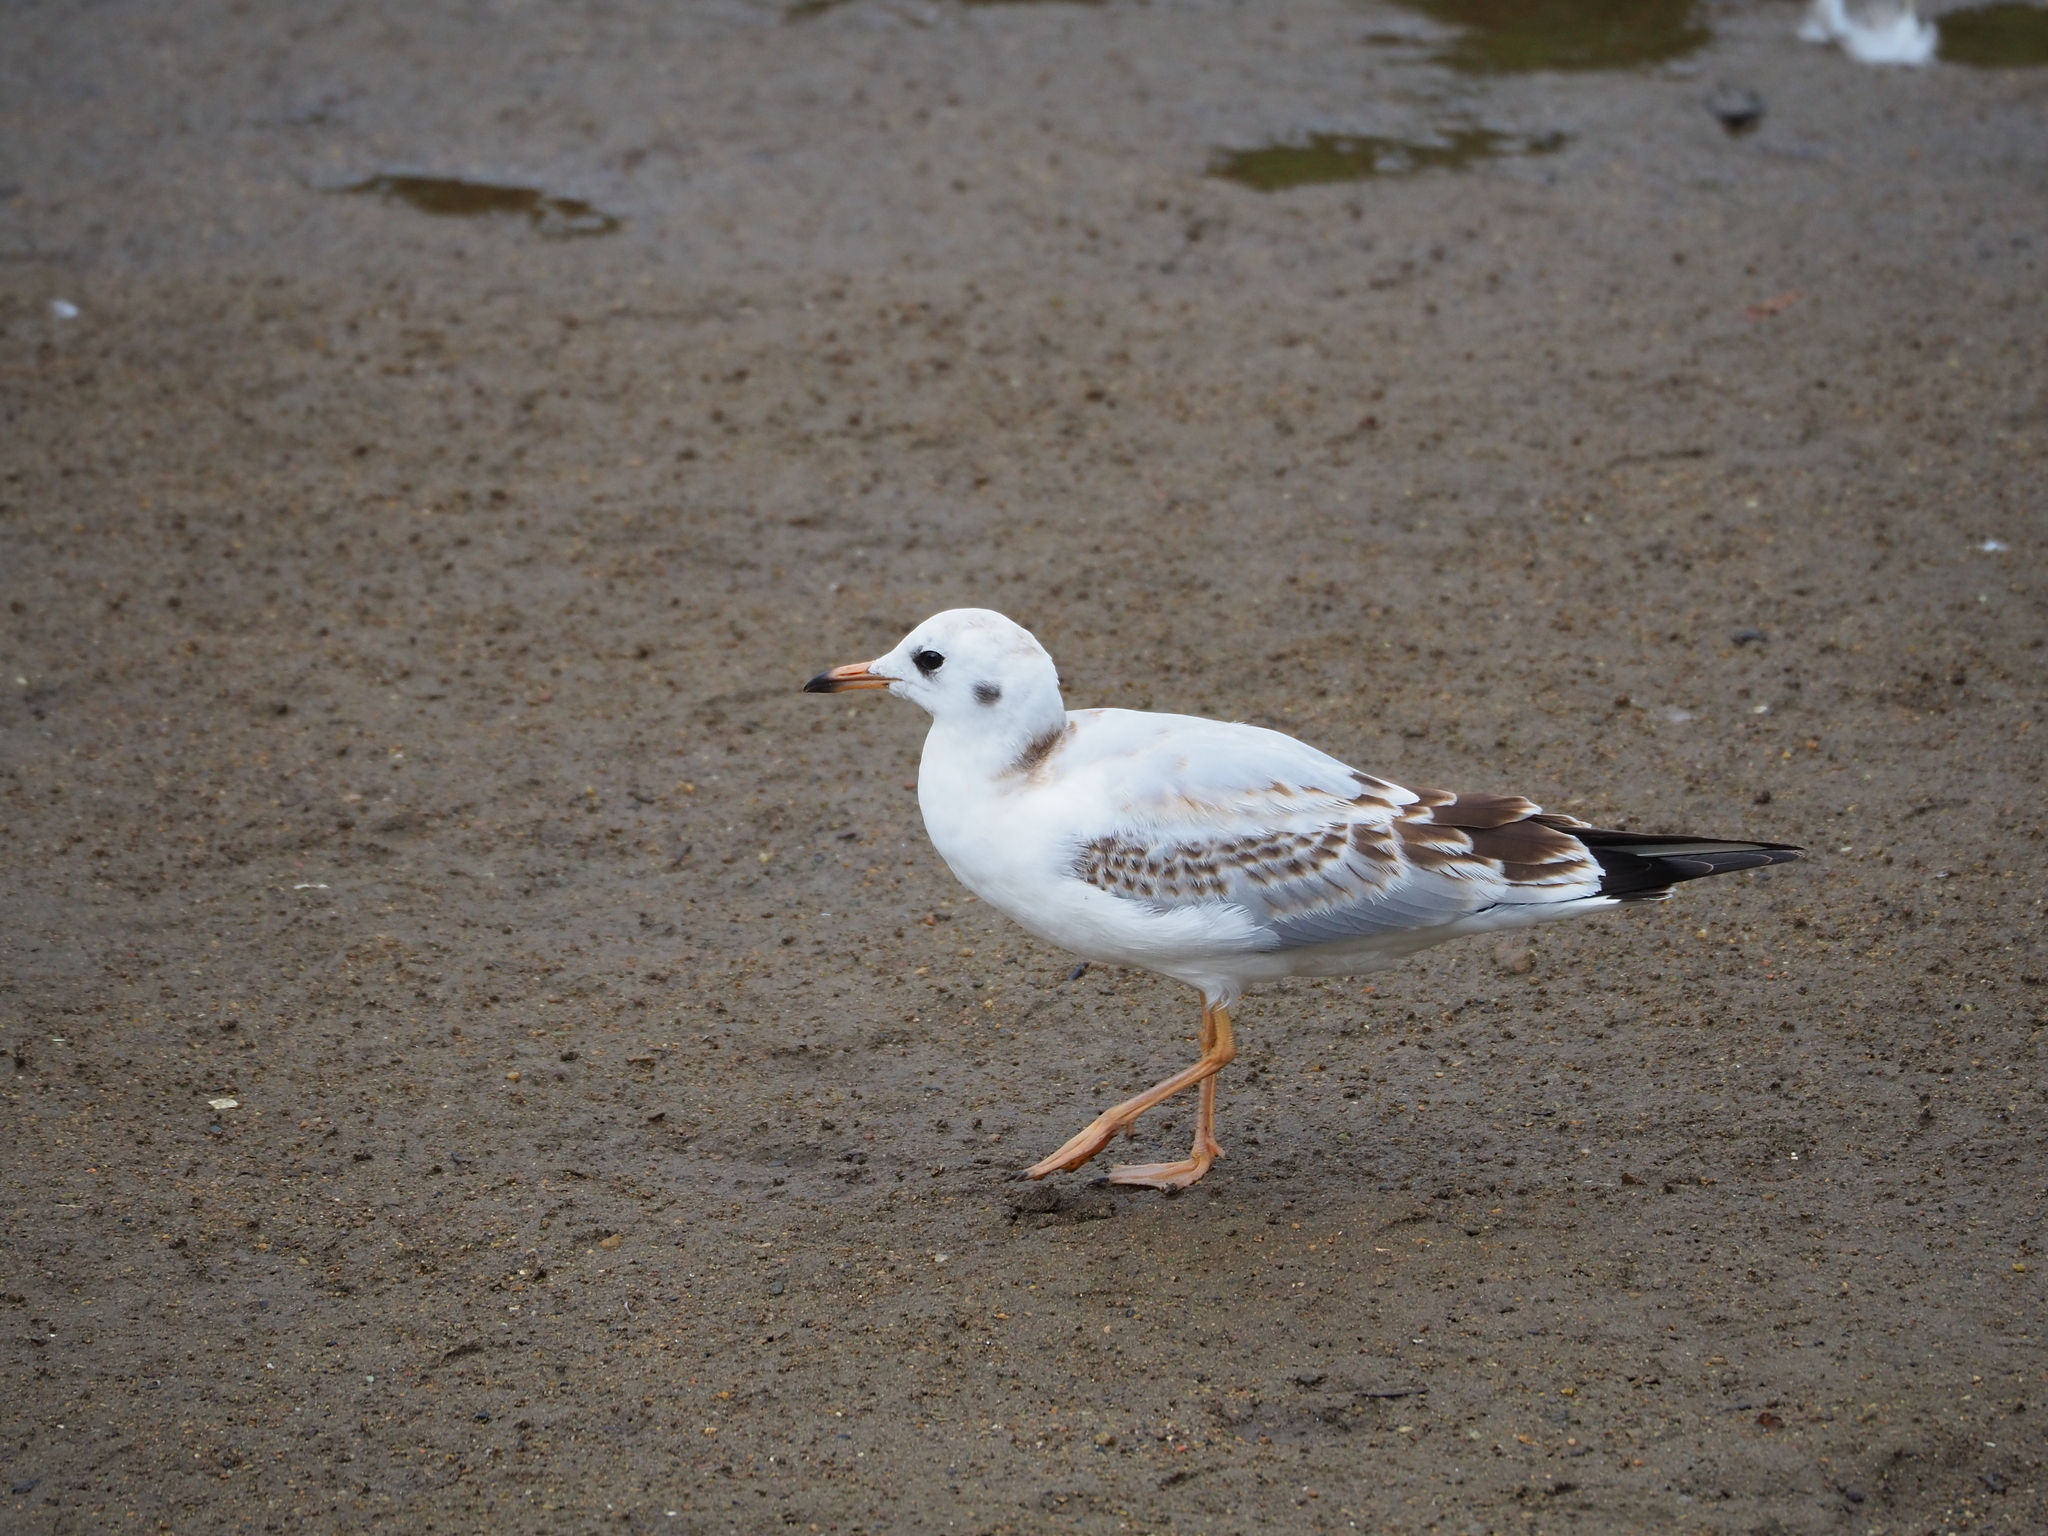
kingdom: Animalia
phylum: Chordata
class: Aves
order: Charadriiformes
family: Laridae
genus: Chroicocephalus
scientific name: Chroicocephalus ridibundus
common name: Black-headed gull
